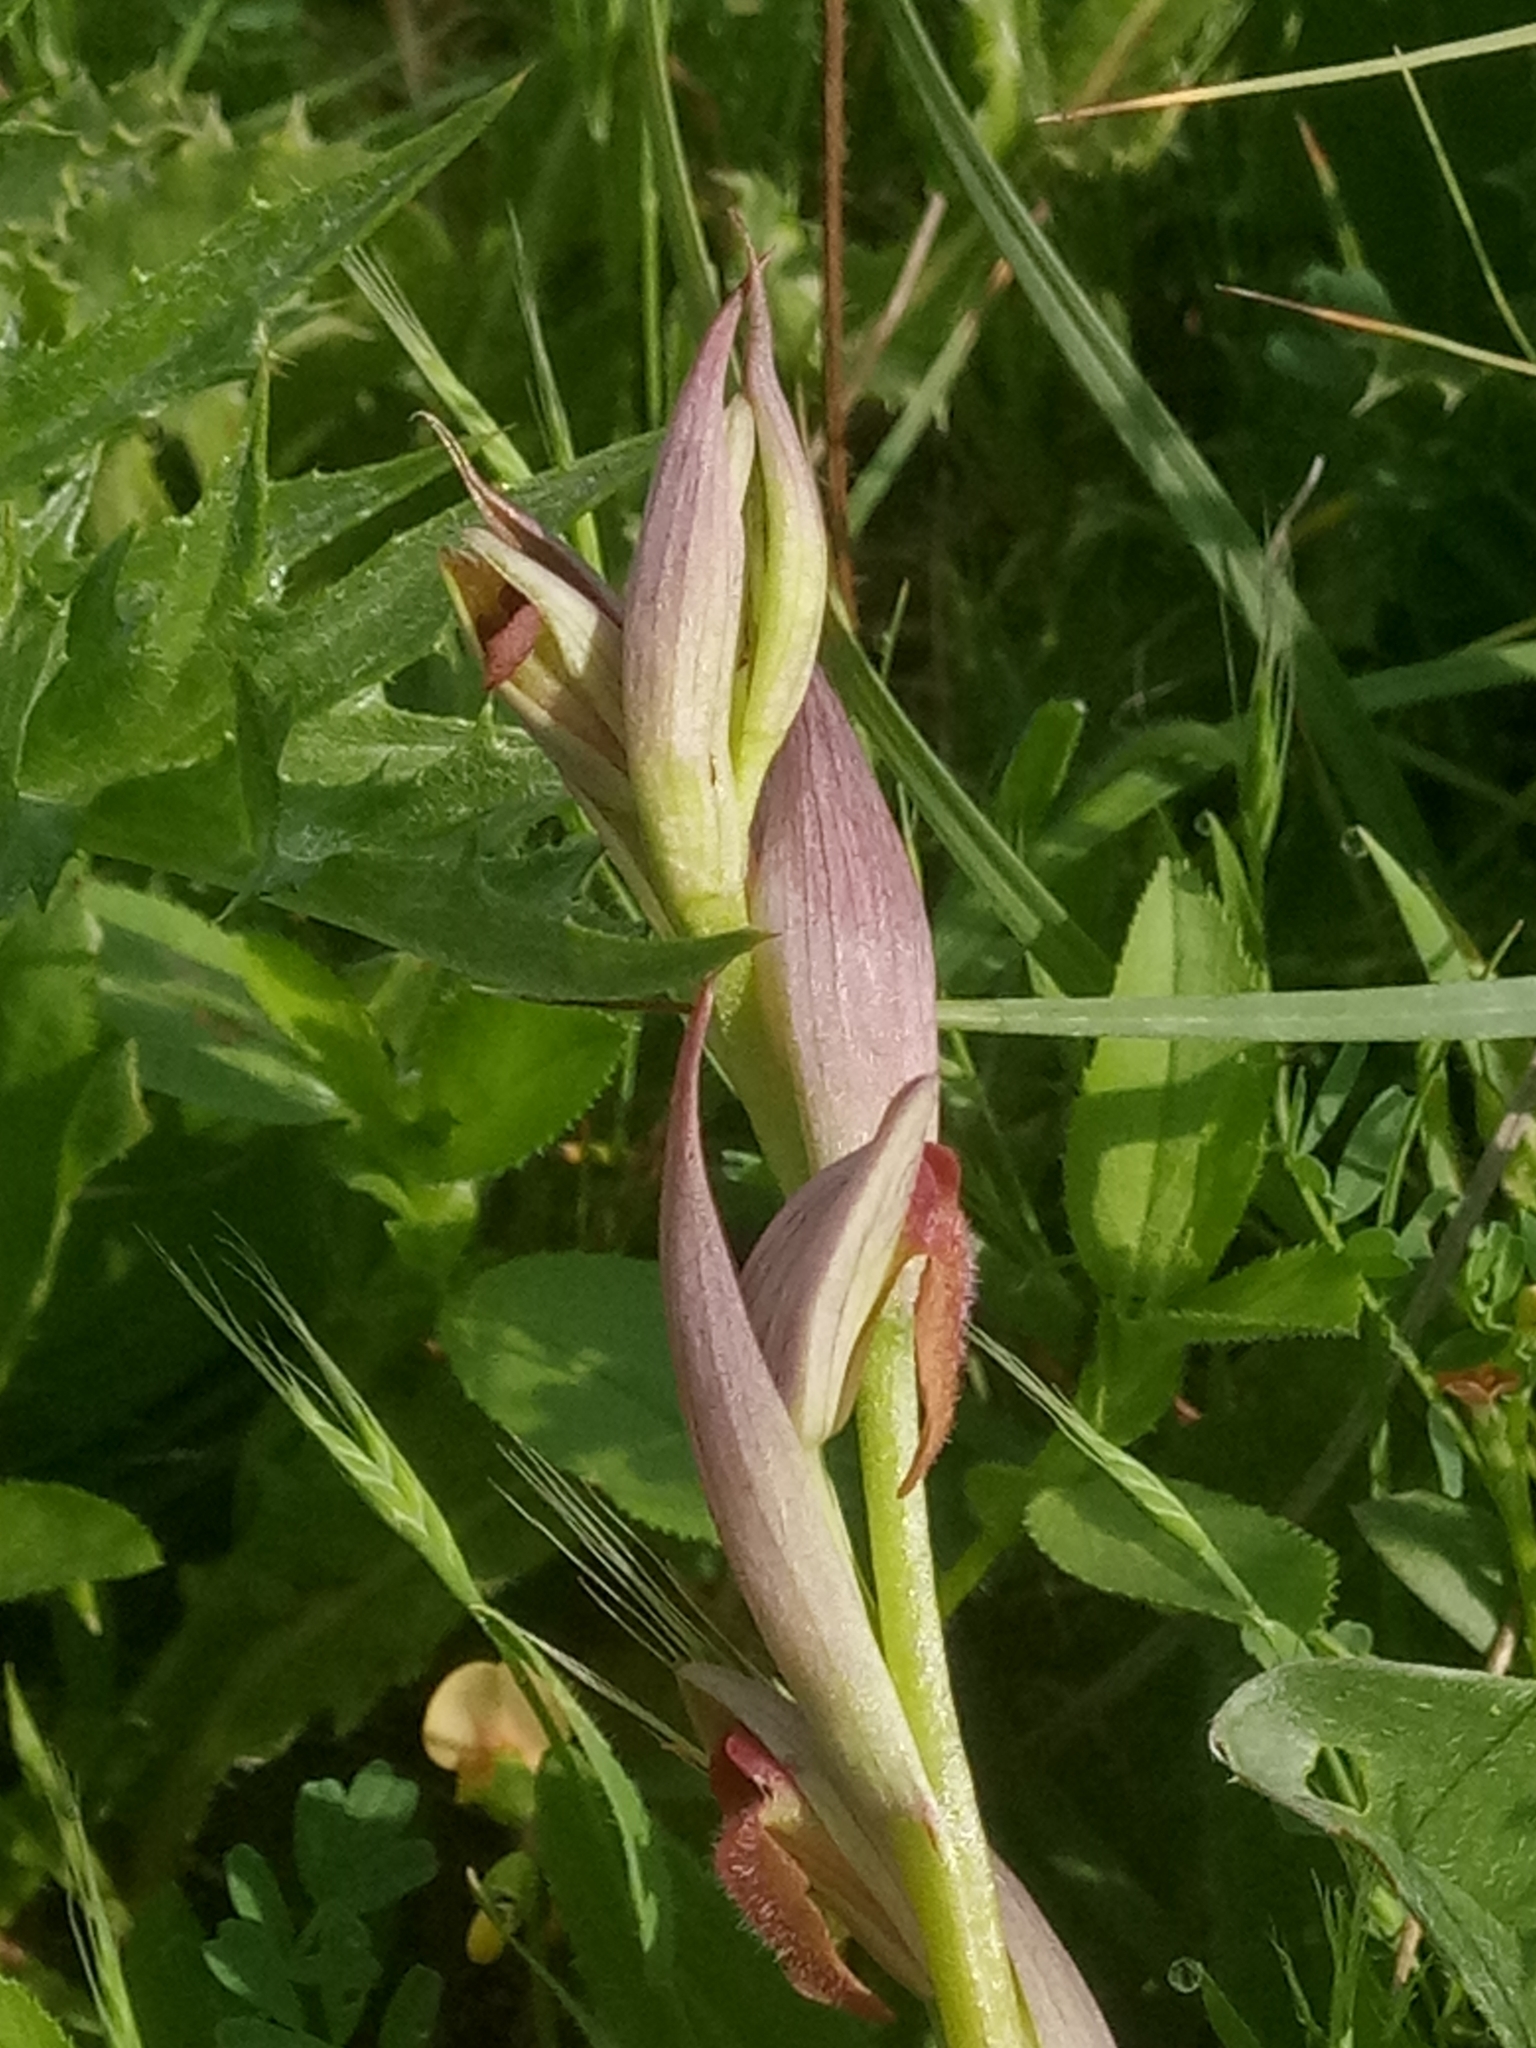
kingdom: Plantae
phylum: Tracheophyta
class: Liliopsida
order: Asparagales
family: Orchidaceae
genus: Serapias
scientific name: Serapias parviflora
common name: Small-flowered tongue-orchid
